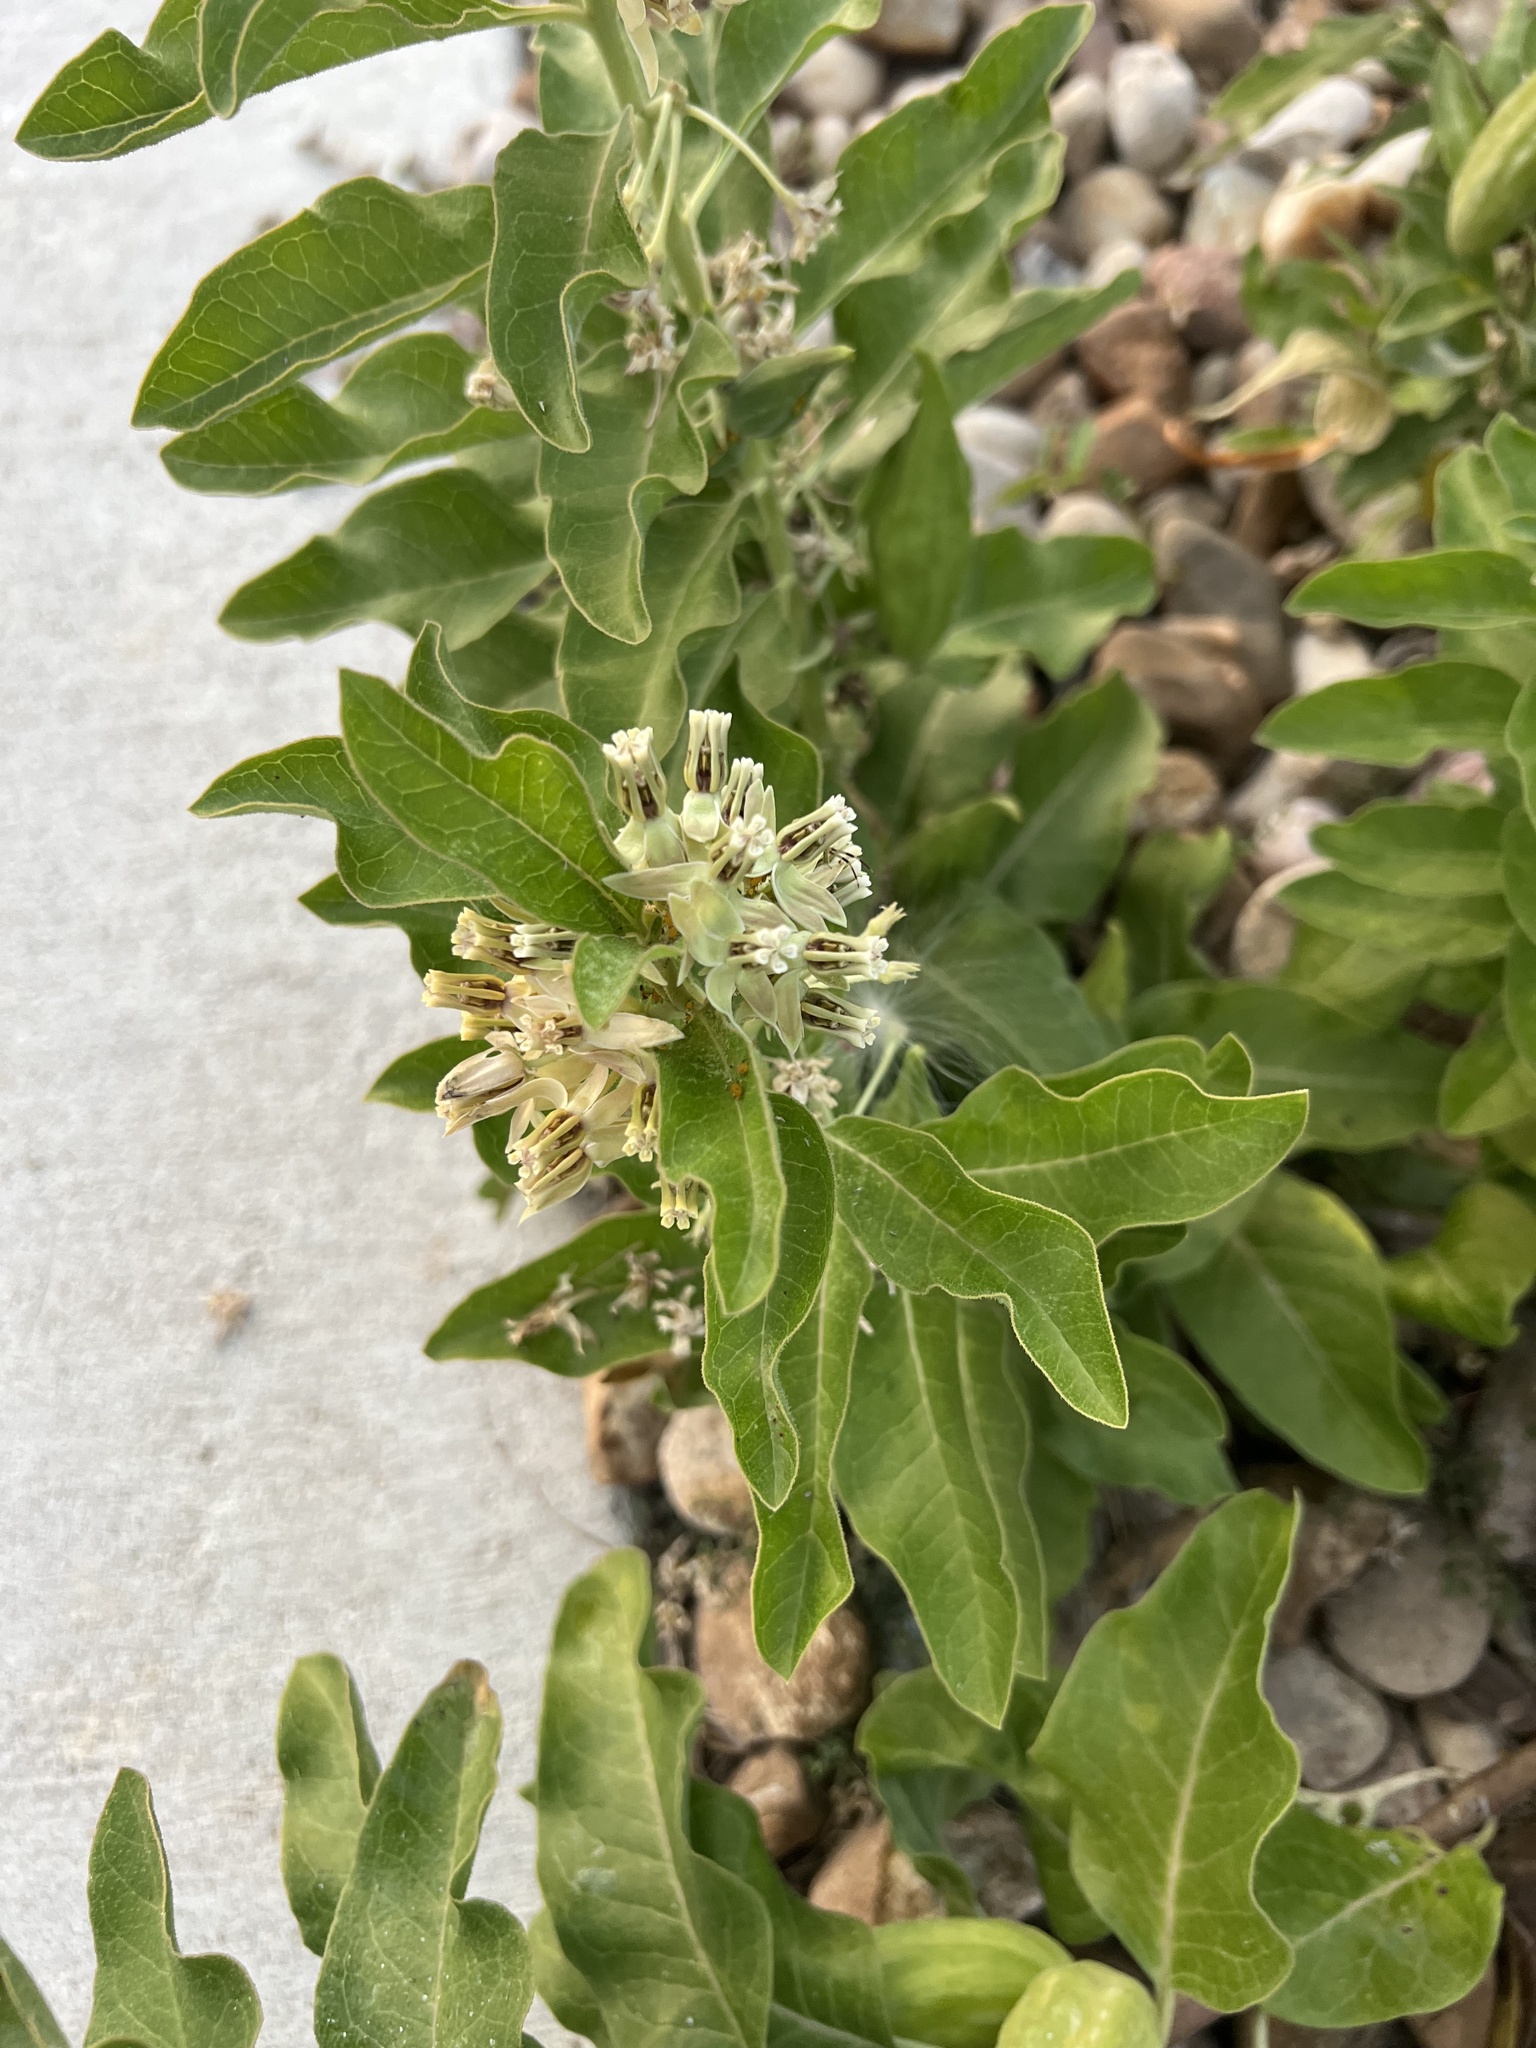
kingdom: Plantae
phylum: Tracheophyta
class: Magnoliopsida
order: Gentianales
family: Apocynaceae
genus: Asclepias
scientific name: Asclepias oenotheroides
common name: Zizotes milkweed
